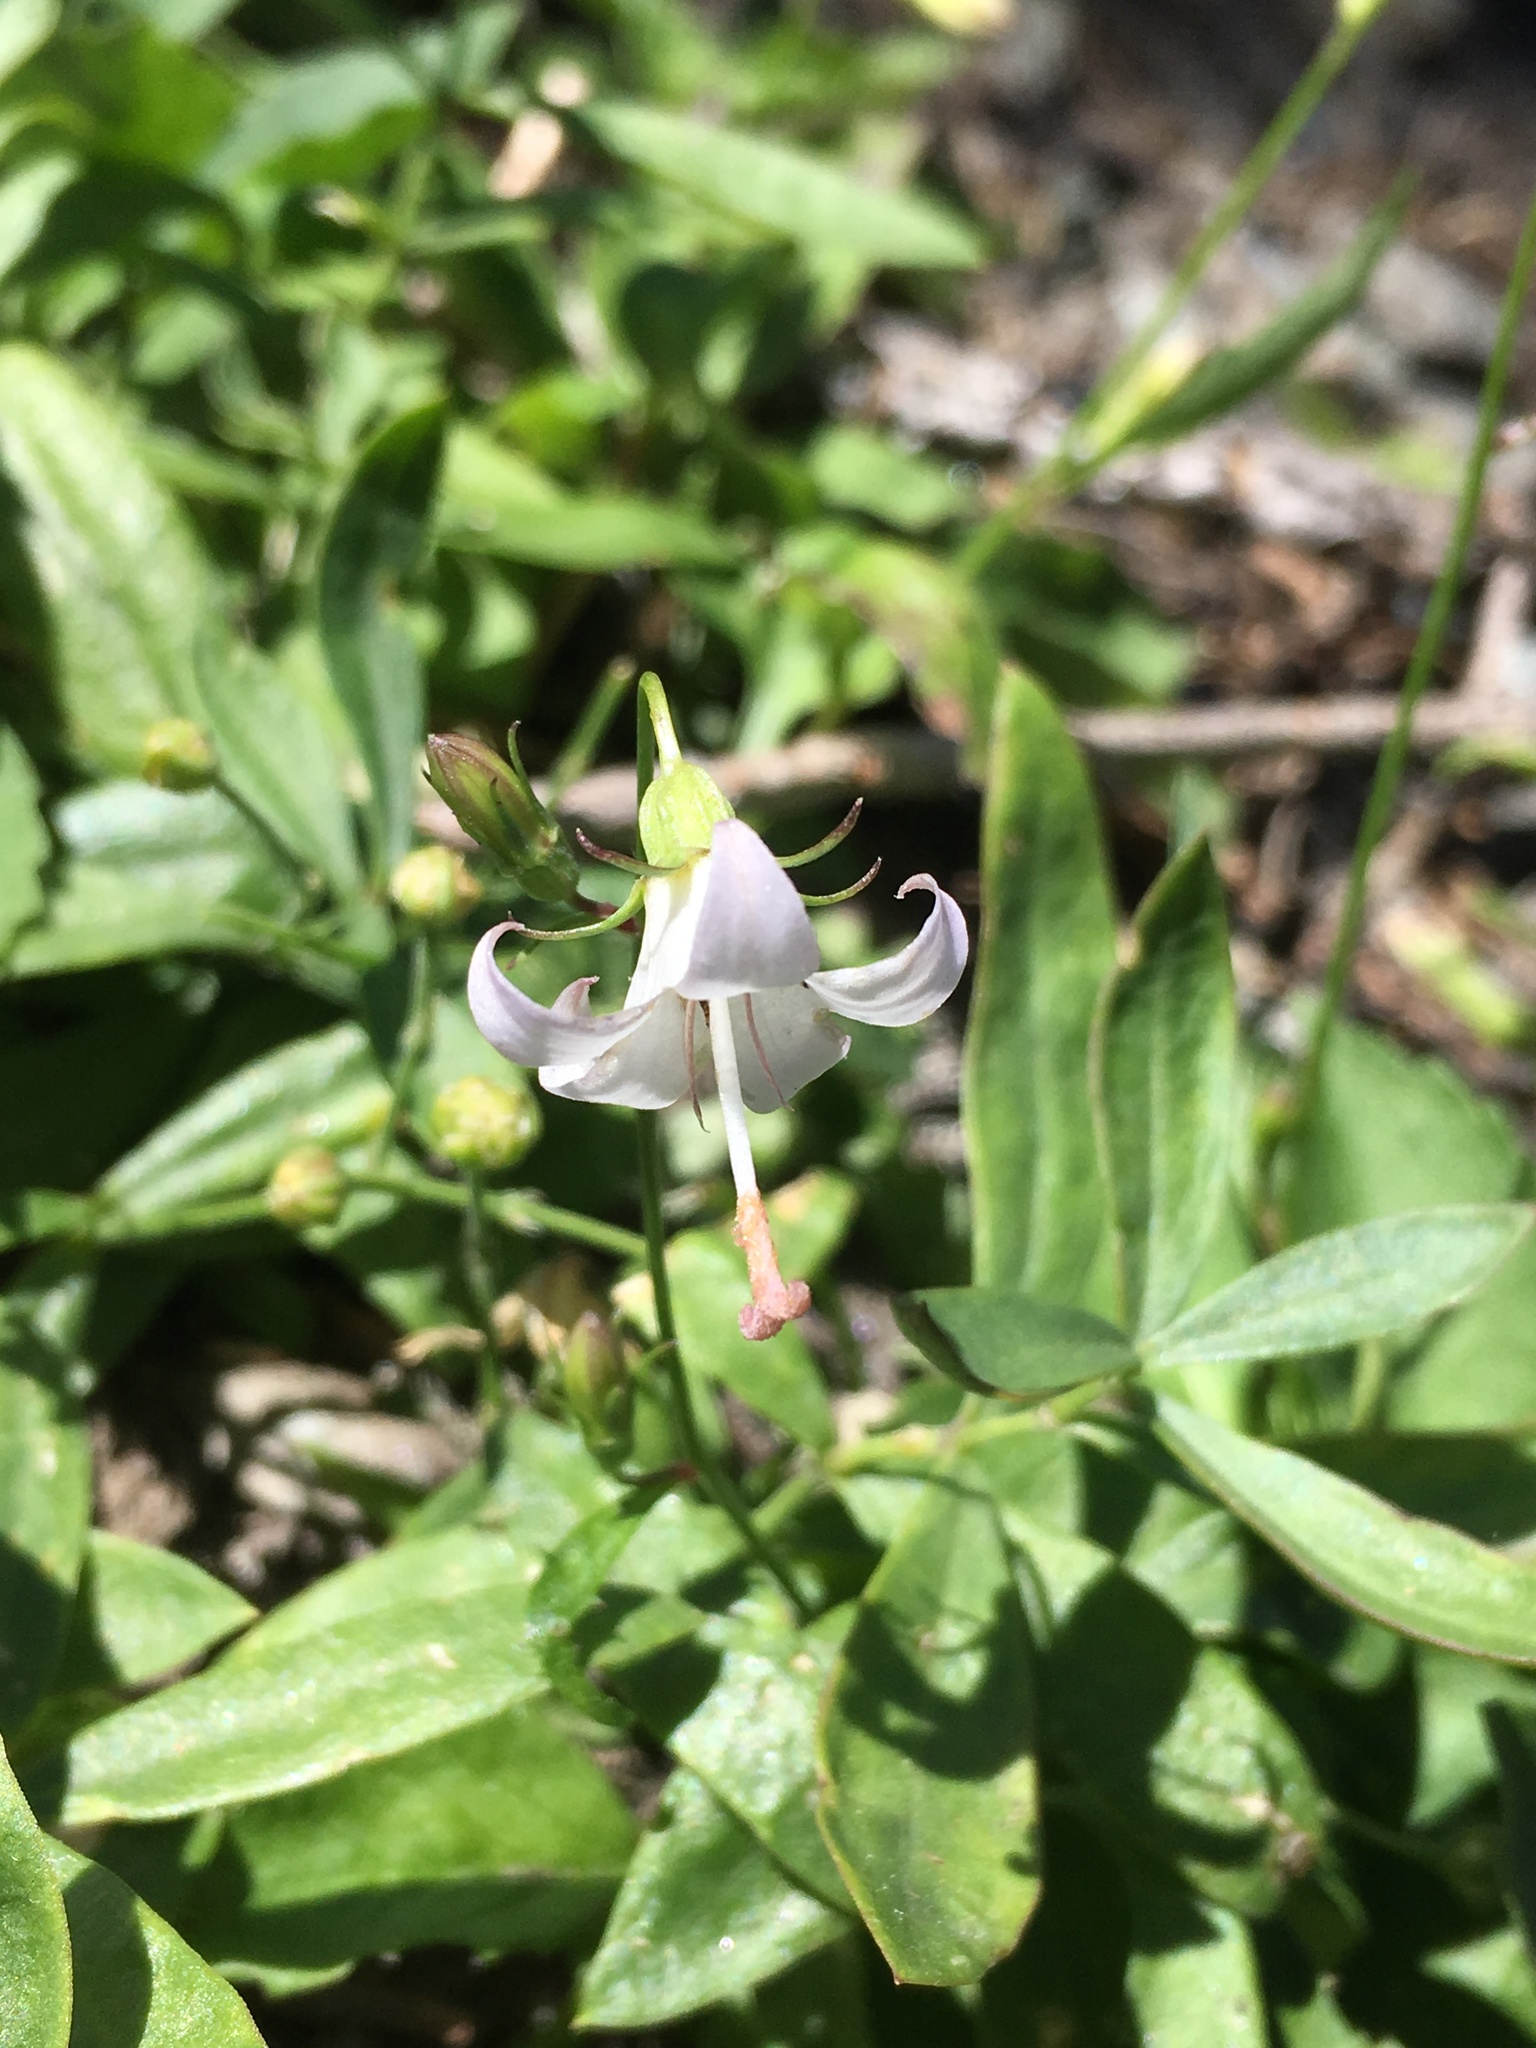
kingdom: Plantae
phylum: Tracheophyta
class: Magnoliopsida
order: Asterales
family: Campanulaceae
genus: Campanula
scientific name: Campanula scouleri
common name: Scouler's harebell
